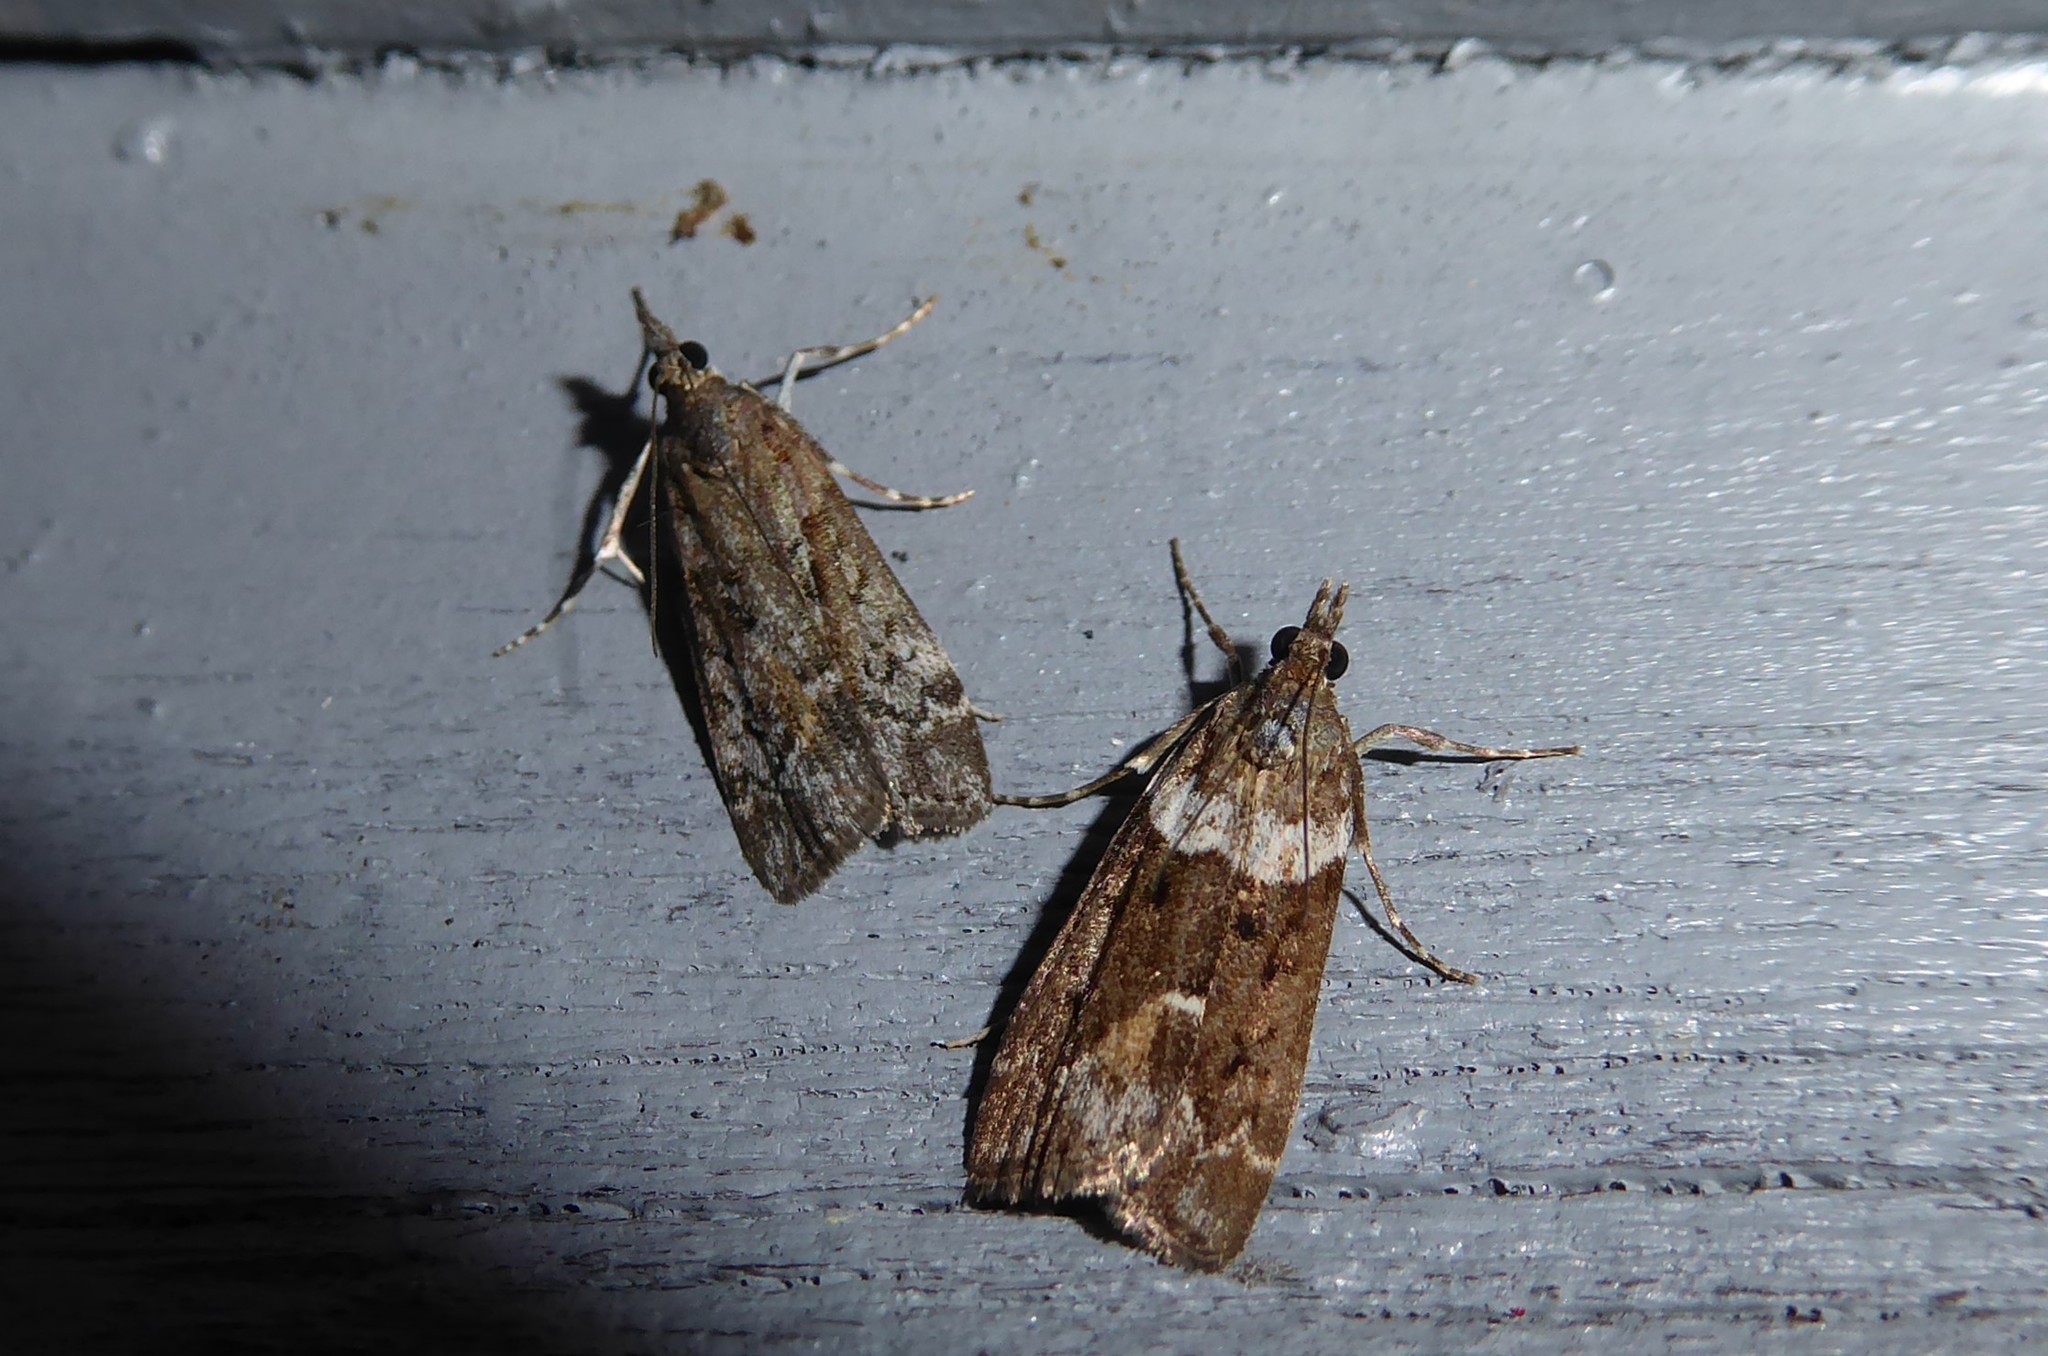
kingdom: Animalia
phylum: Arthropoda
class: Insecta
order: Lepidoptera
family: Crambidae
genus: Eudonia
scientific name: Eudonia submarginalis
